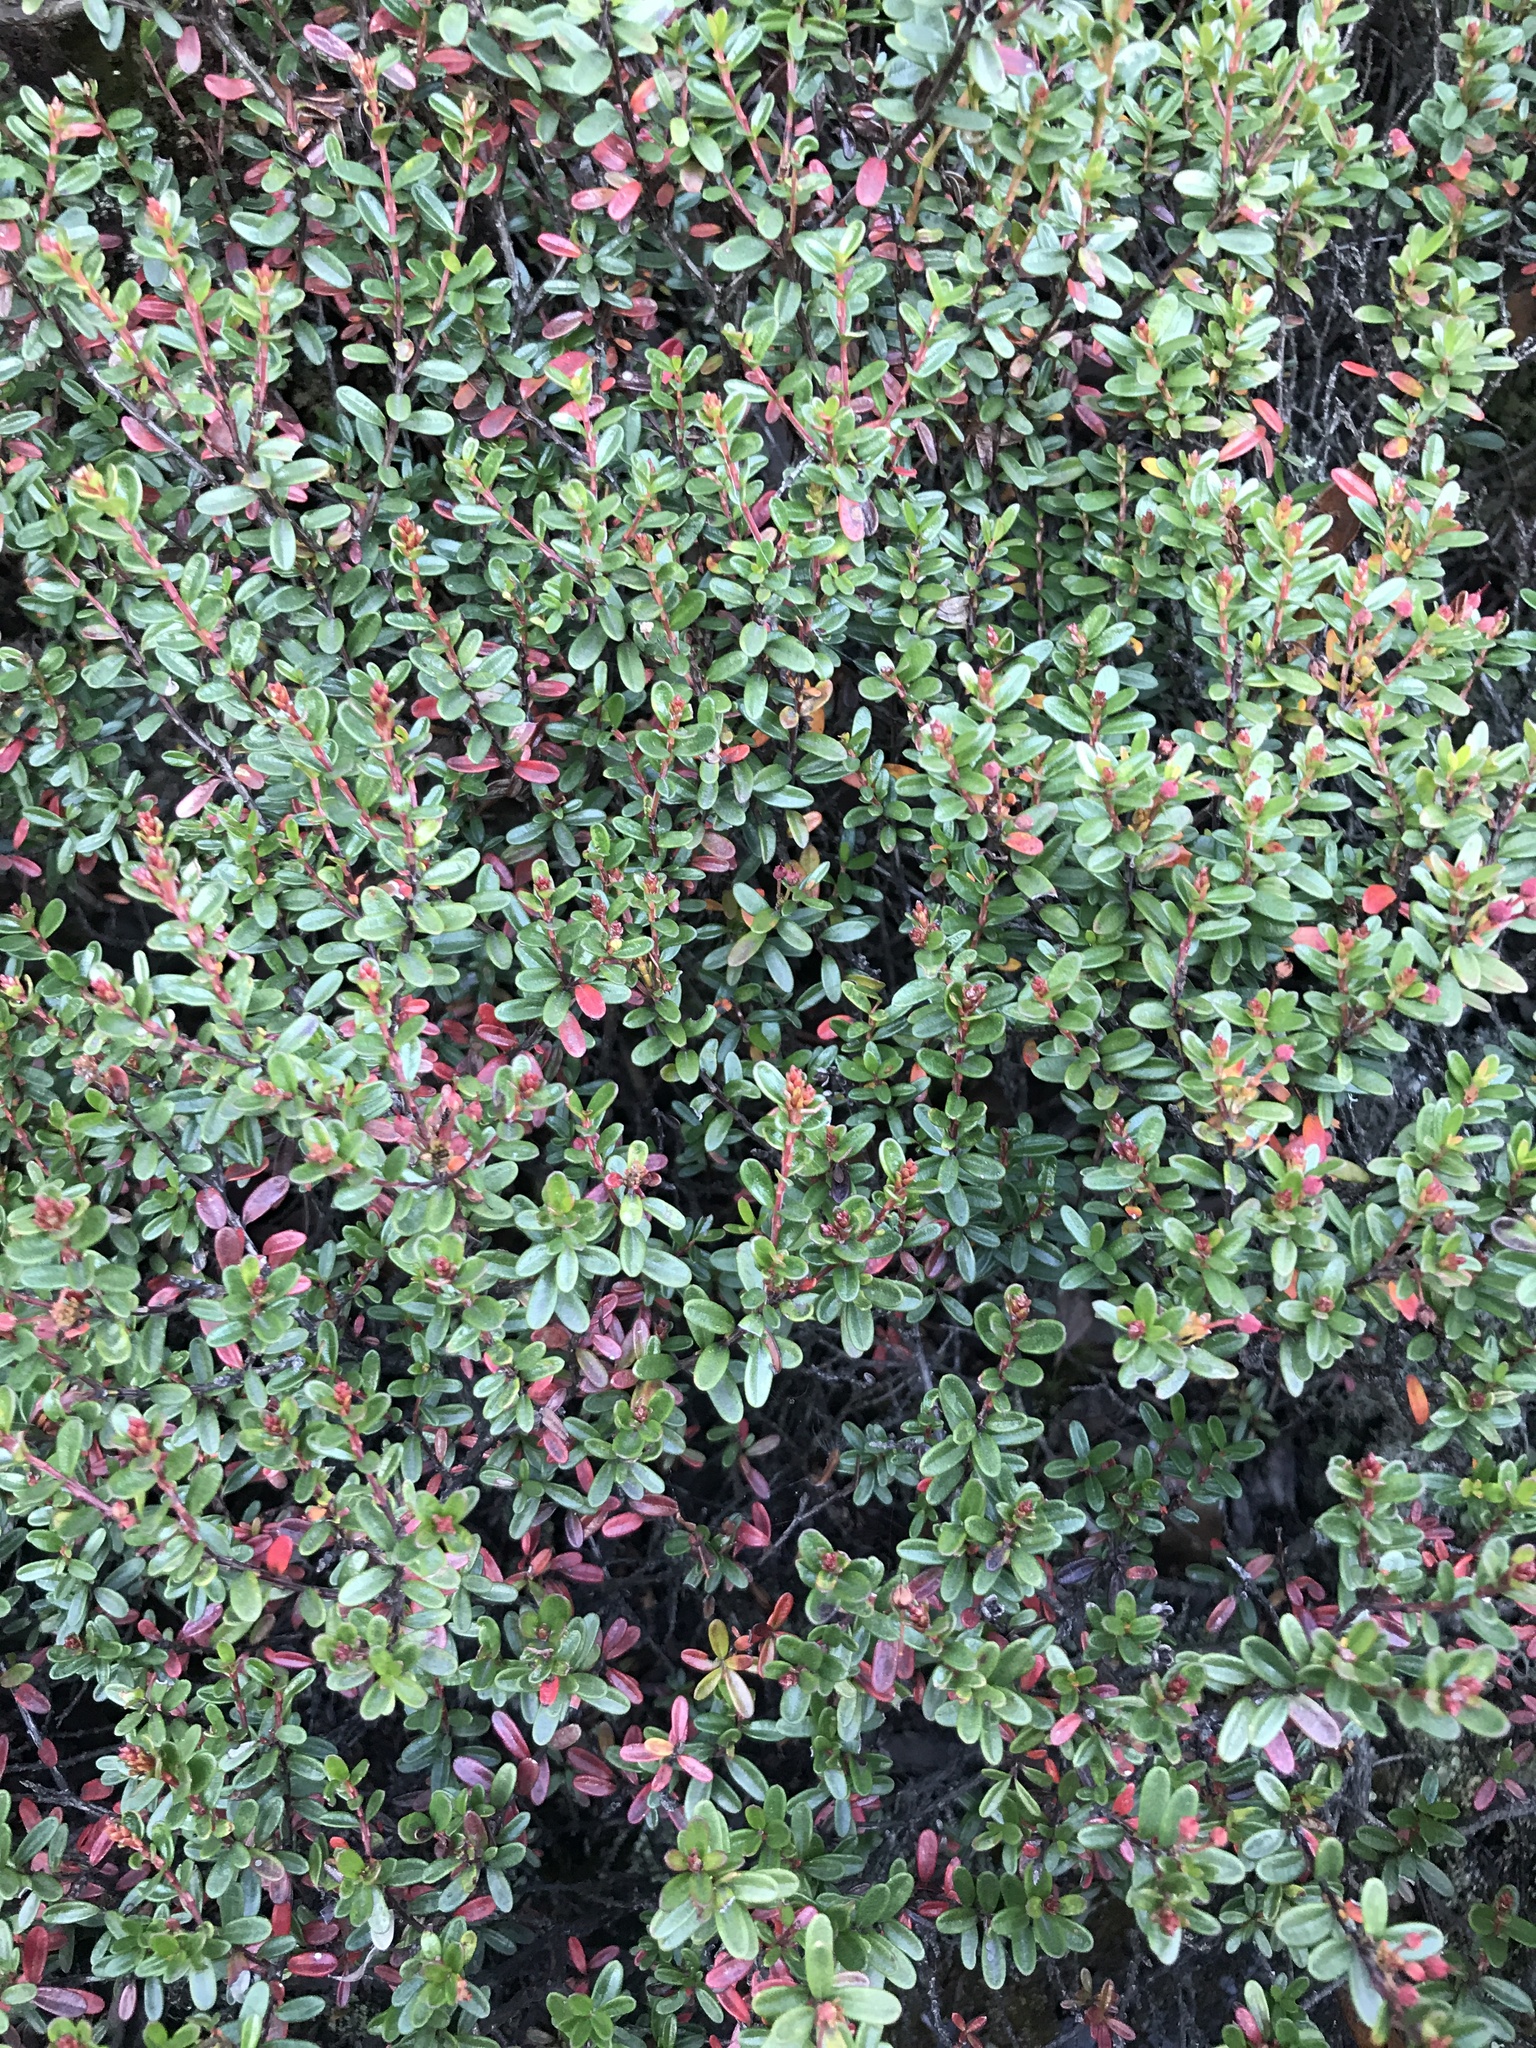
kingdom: Plantae
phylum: Tracheophyta
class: Magnoliopsida
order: Ericales
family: Ericaceae
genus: Kalmia
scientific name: Kalmia buxifolia
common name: Sandmyrtle
